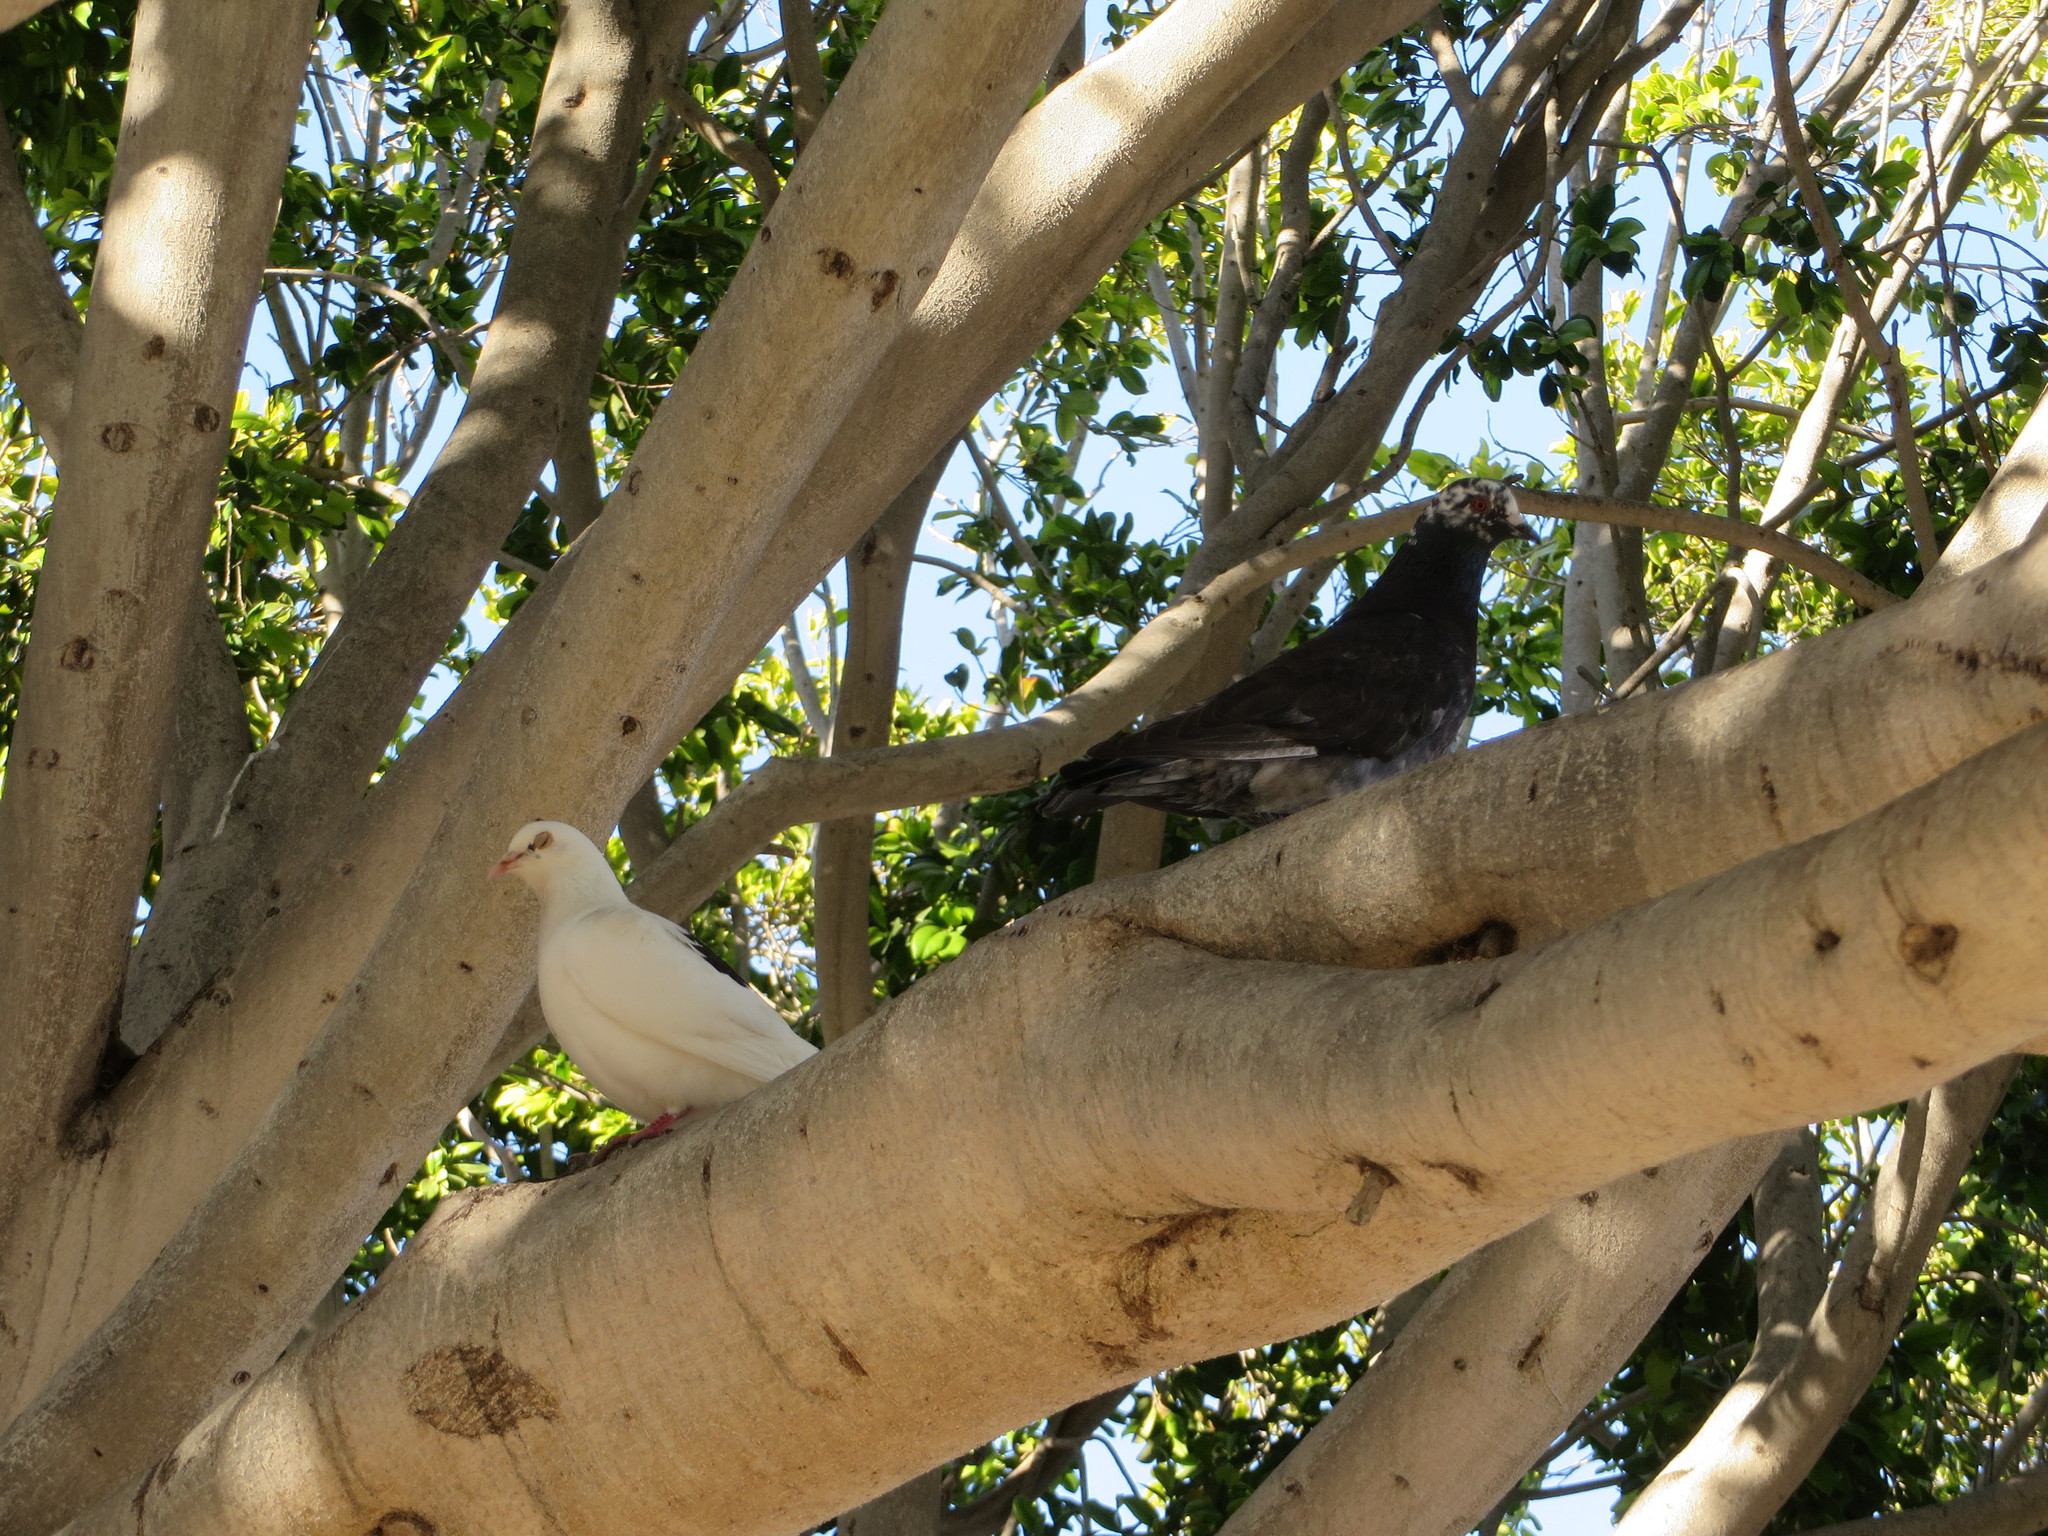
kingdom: Animalia
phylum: Chordata
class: Aves
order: Columbiformes
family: Columbidae
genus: Columba
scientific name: Columba livia
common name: Rock pigeon
